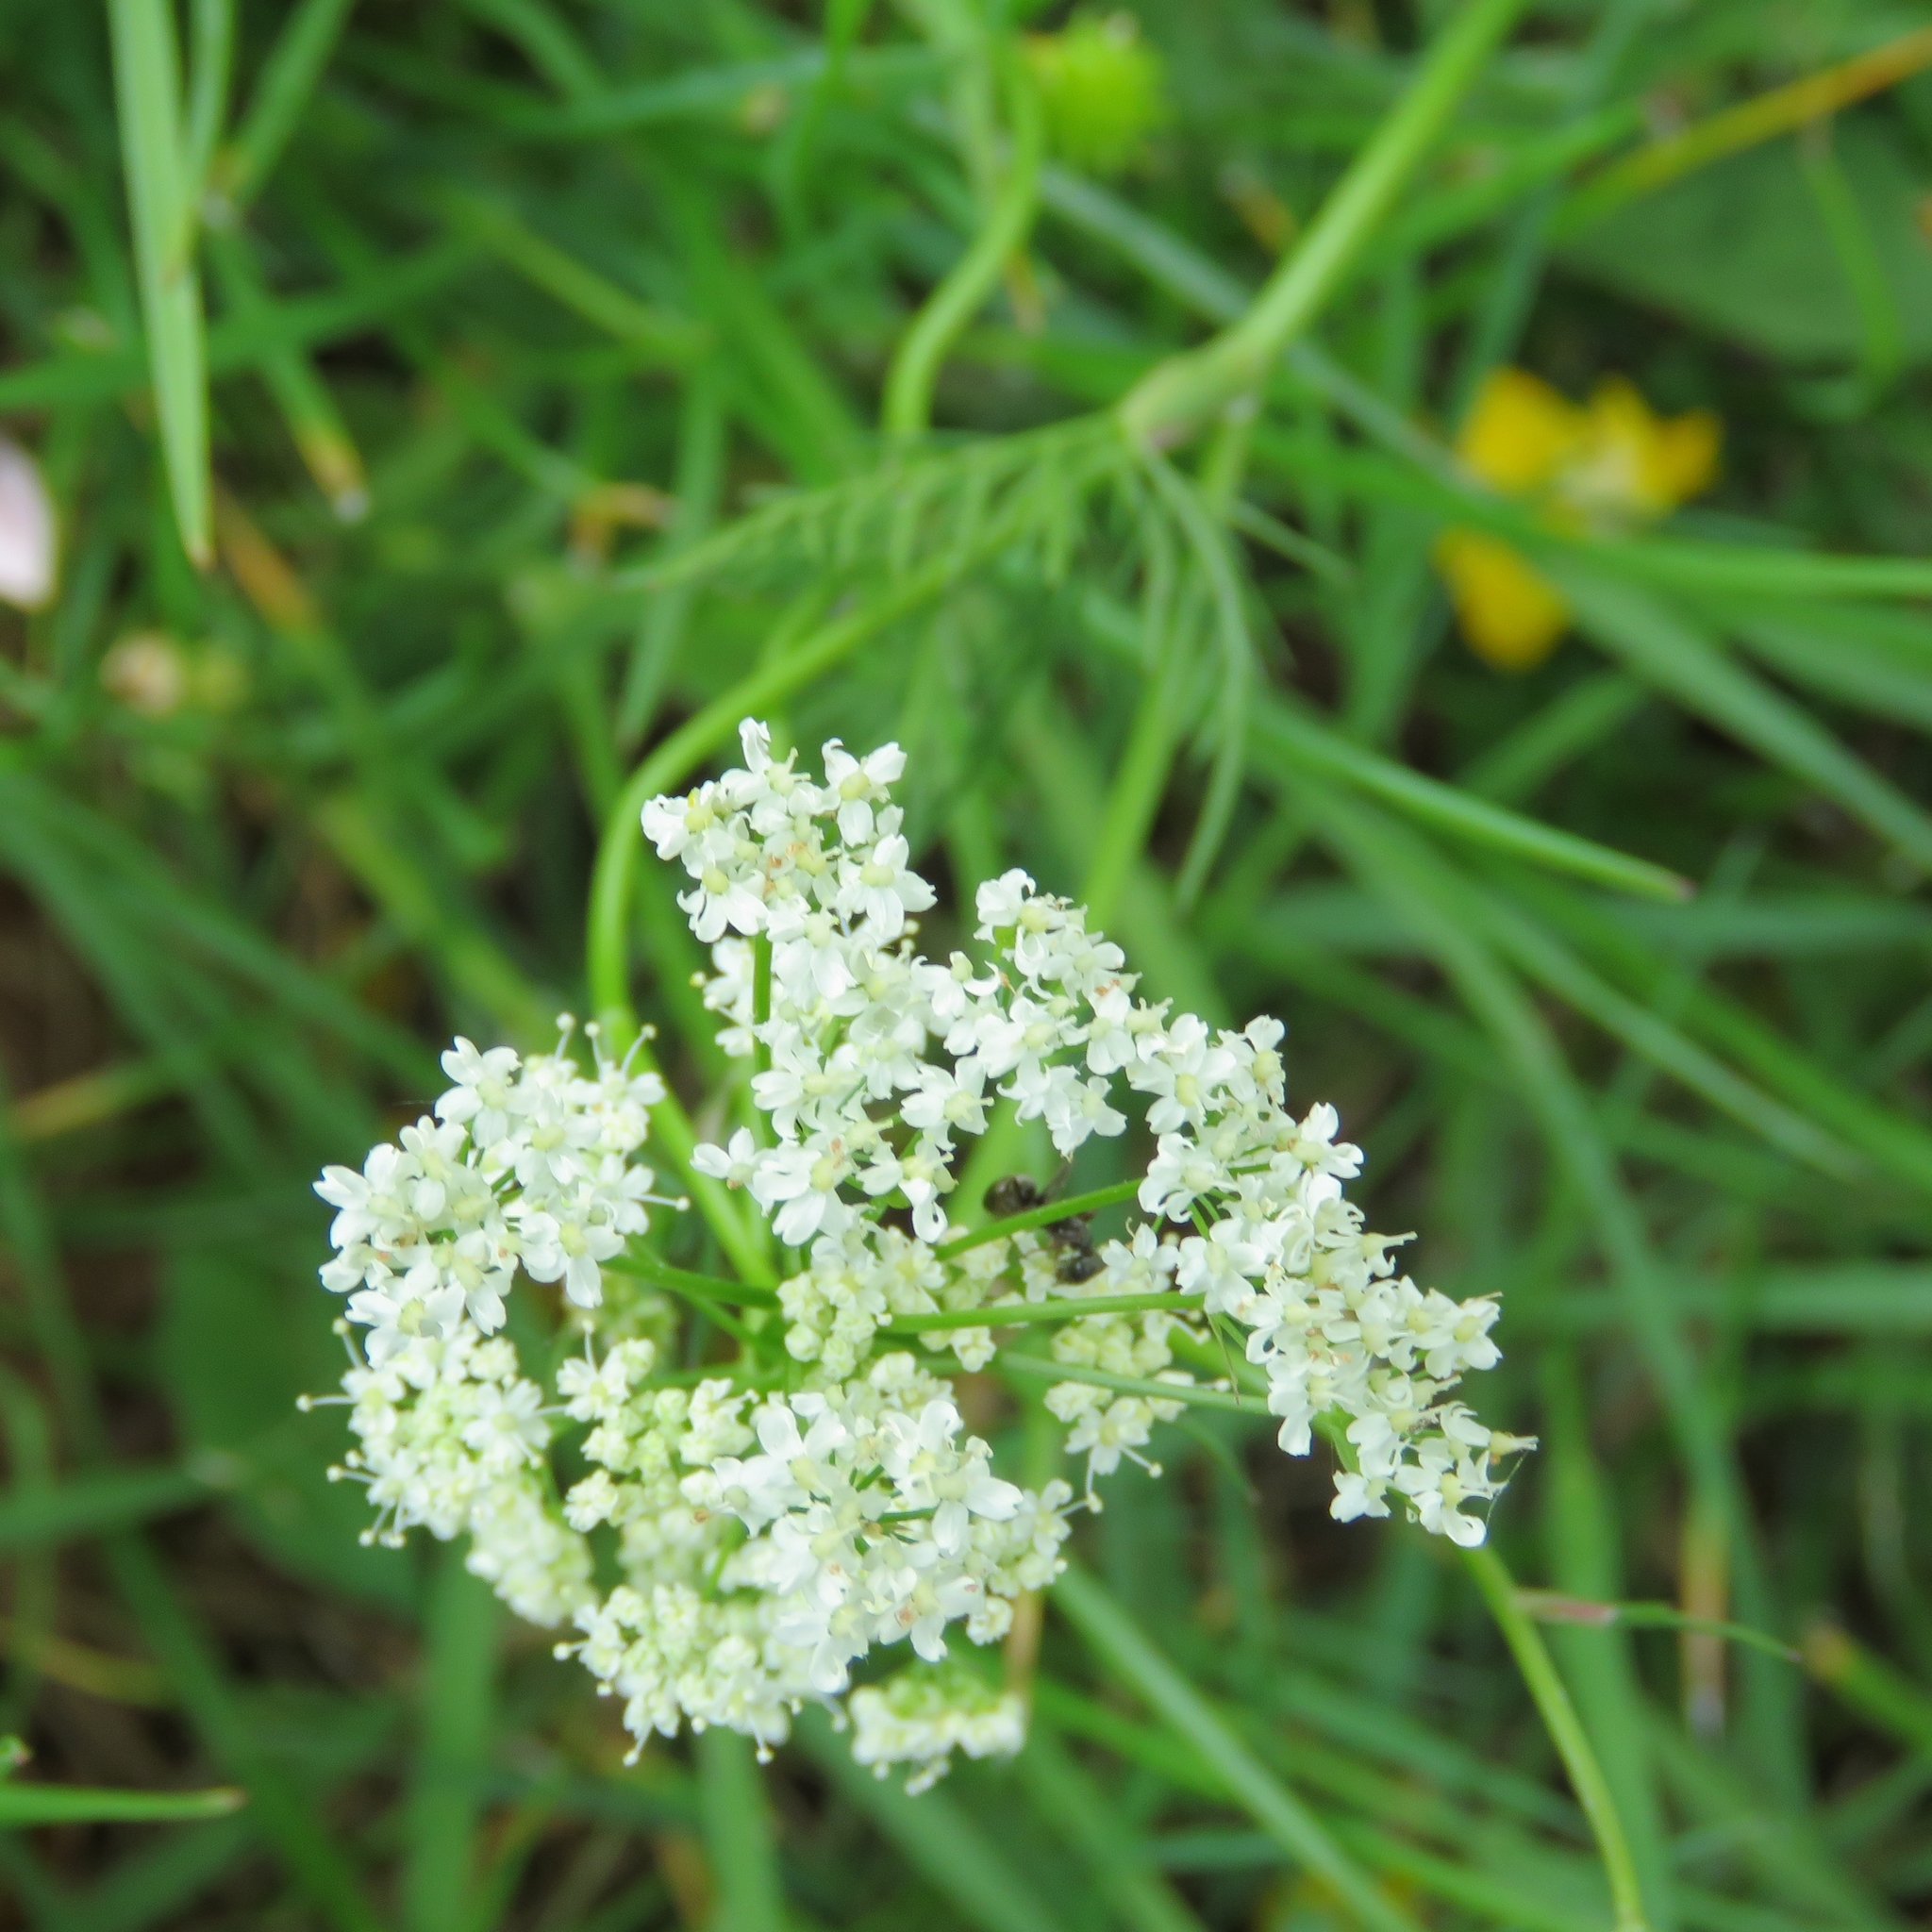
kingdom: Plantae
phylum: Tracheophyta
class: Magnoliopsida
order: Apiales
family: Apiaceae
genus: Conopodium
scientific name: Conopodium majus
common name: Pignut
